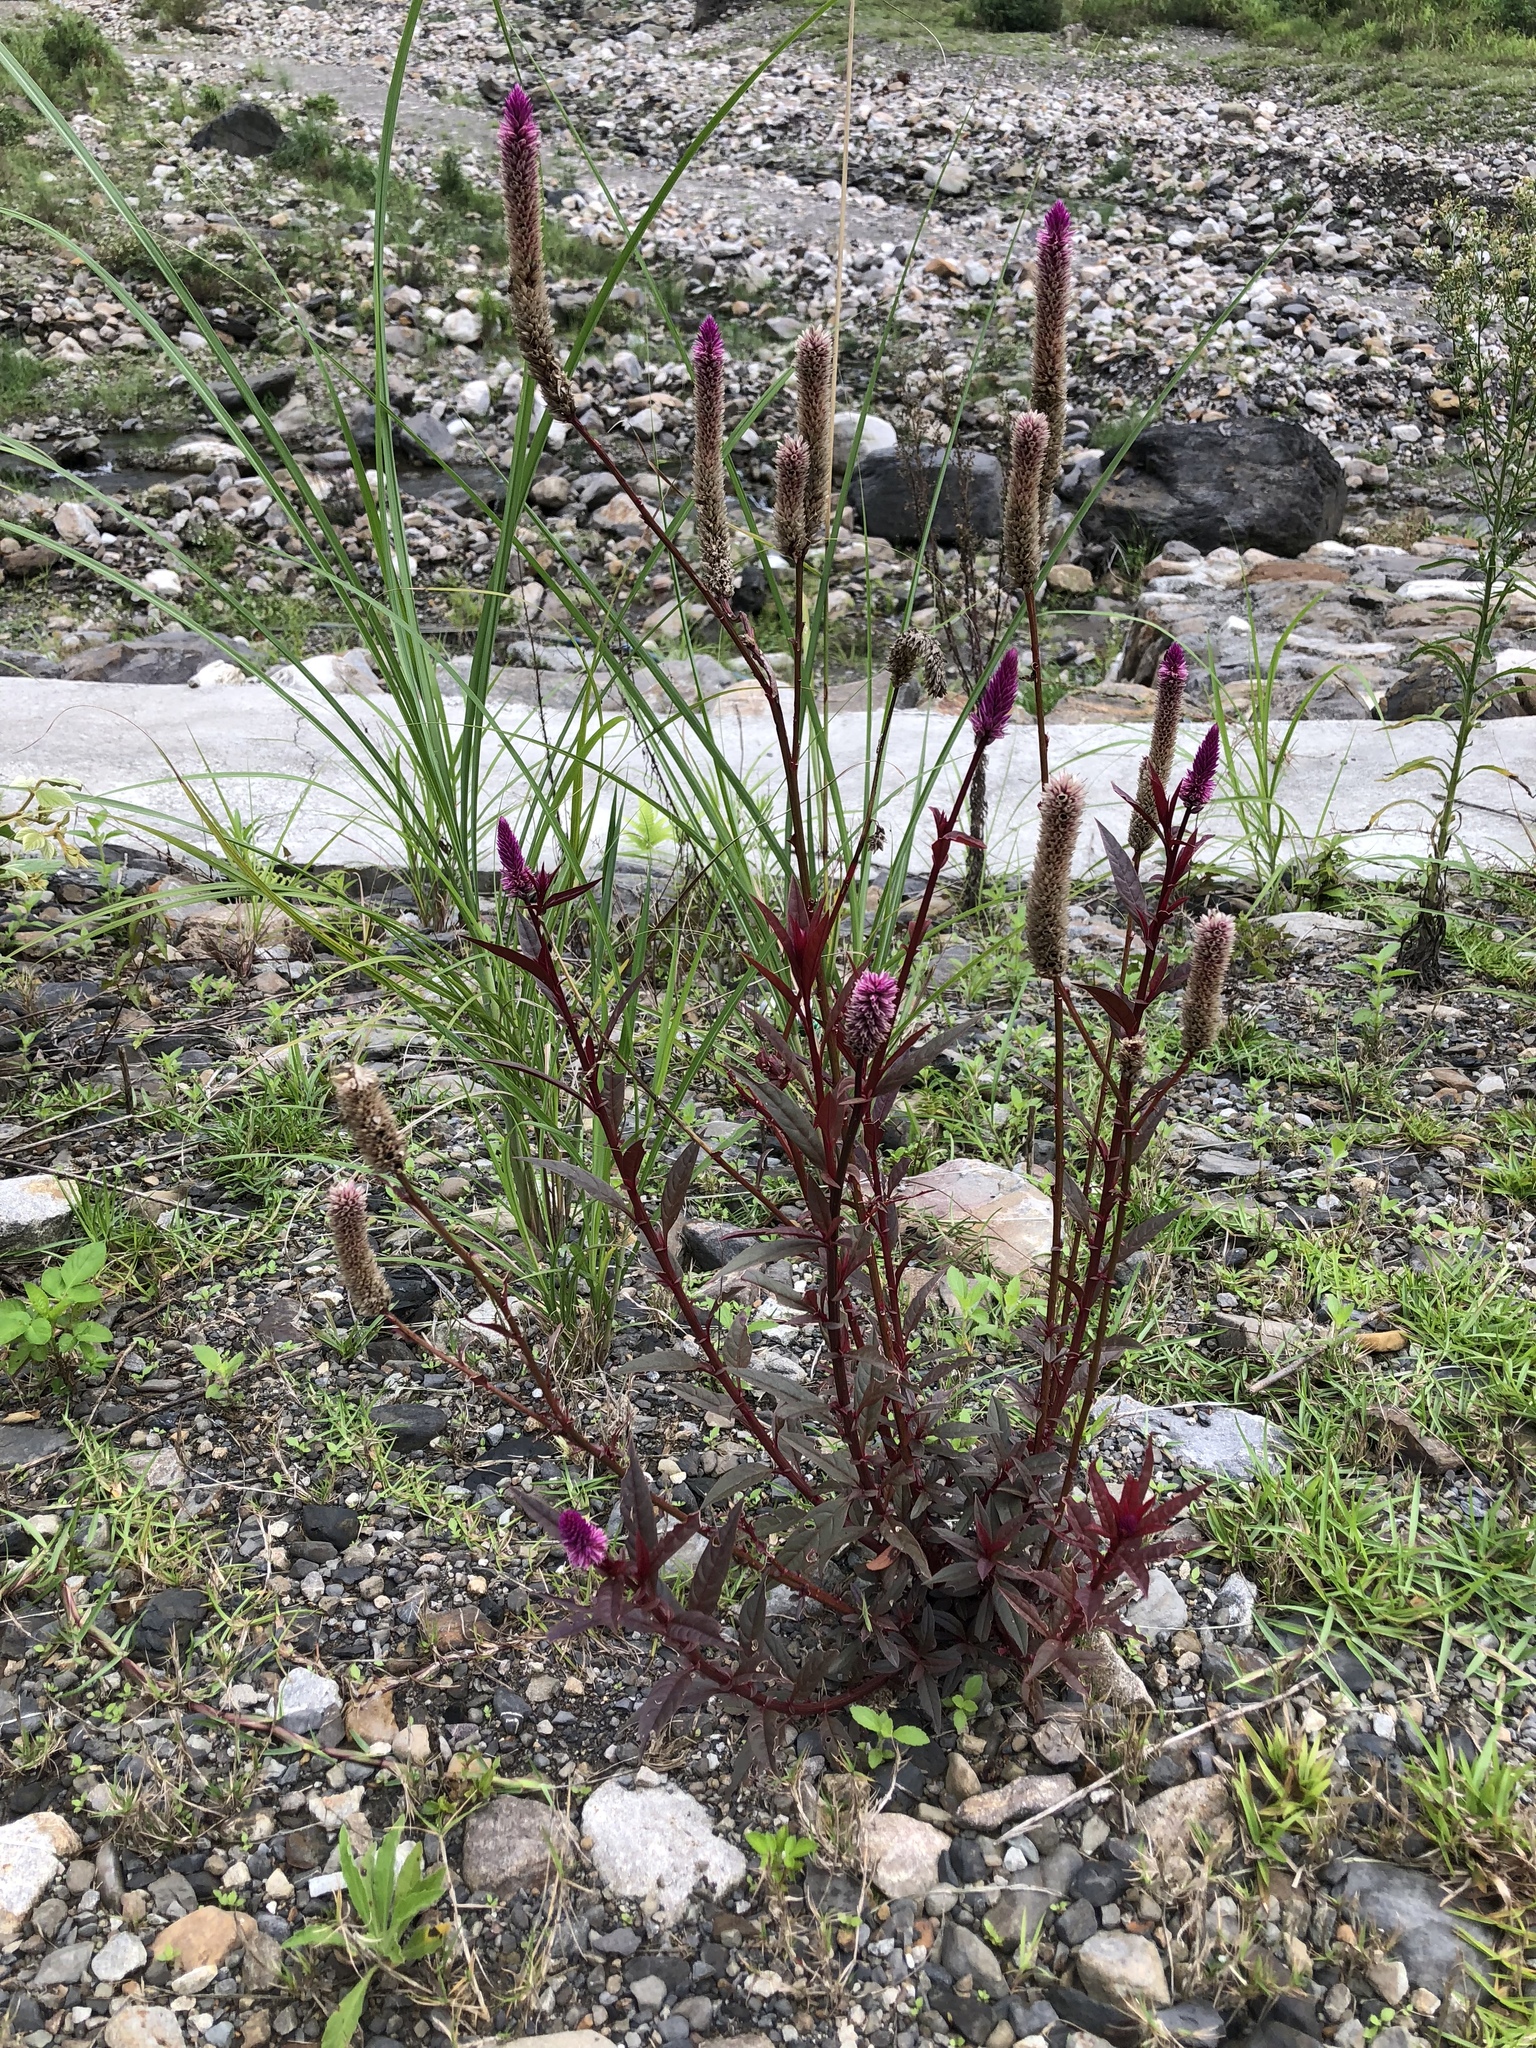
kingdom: Plantae
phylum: Tracheophyta
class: Magnoliopsida
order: Caryophyllales
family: Amaranthaceae
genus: Celosia
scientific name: Celosia argentea
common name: Feather cockscomb
